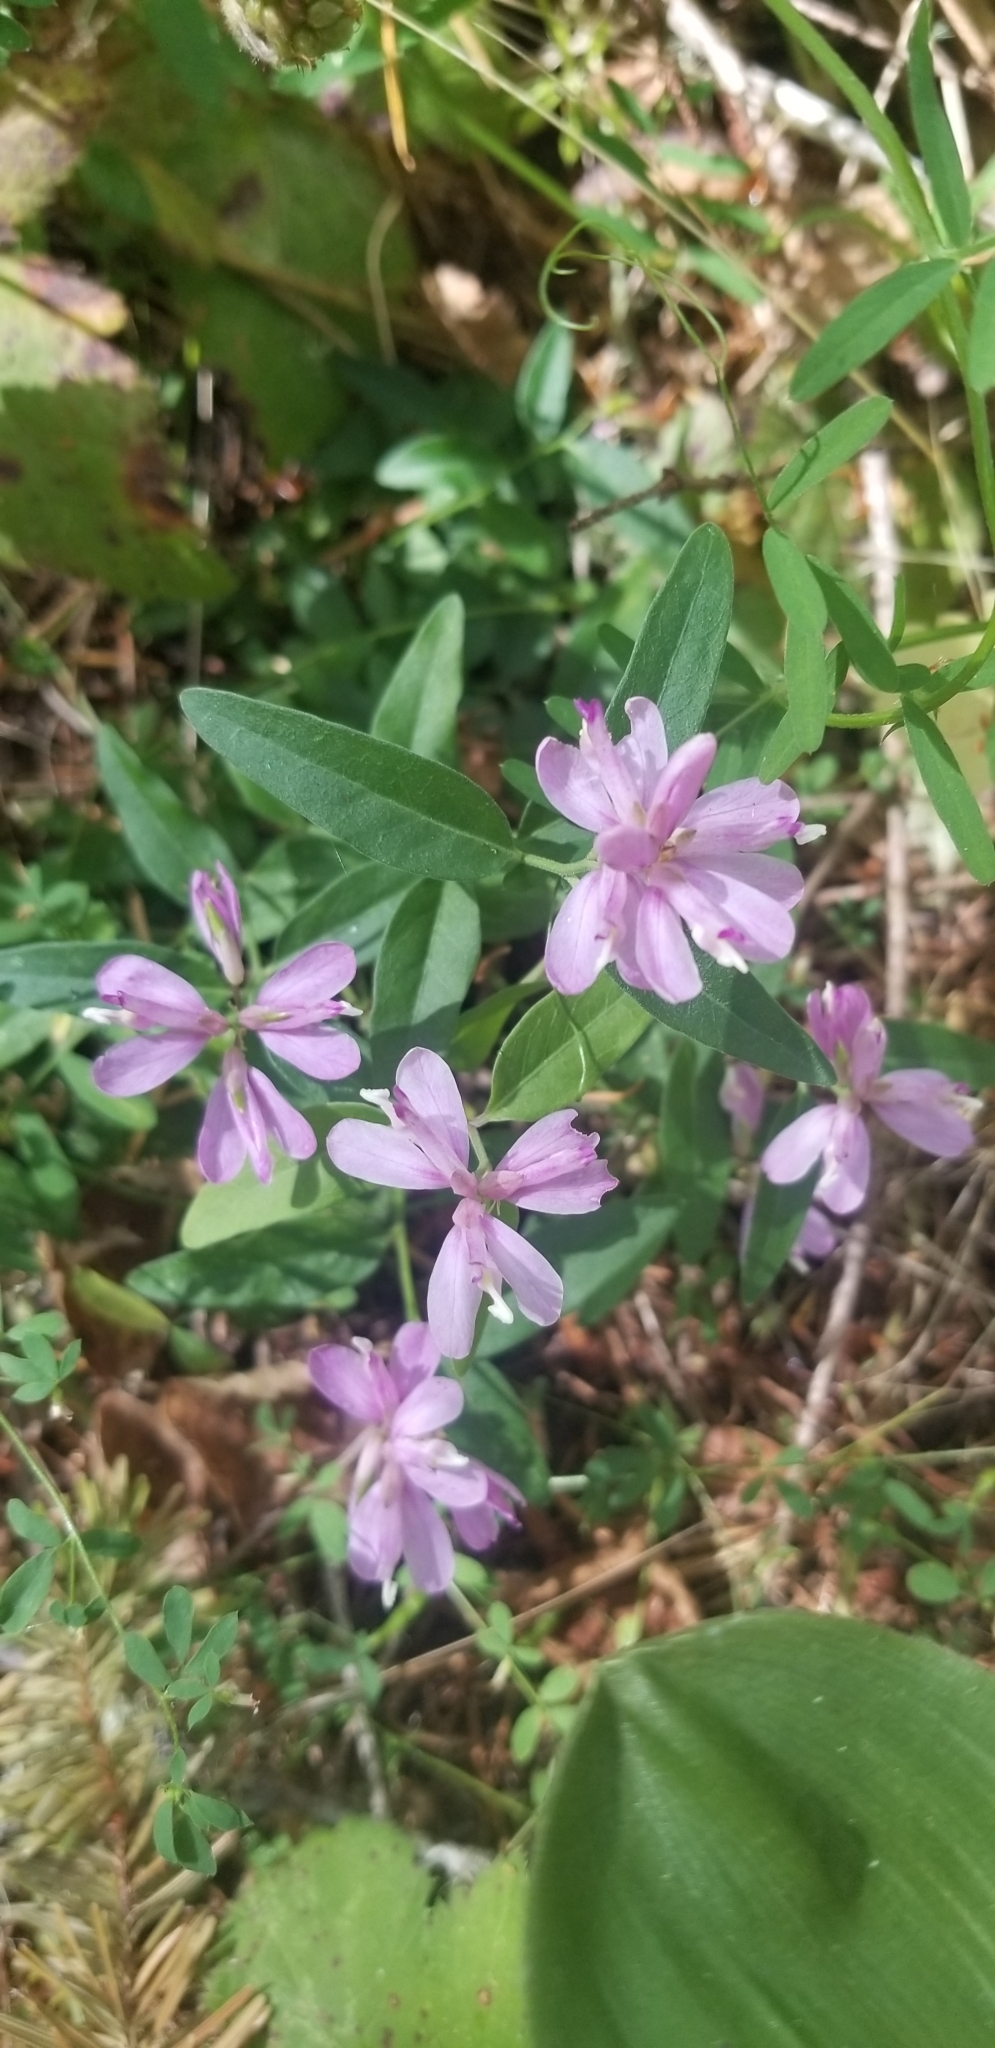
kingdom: Plantae
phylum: Tracheophyta
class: Magnoliopsida
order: Fabales
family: Polygalaceae
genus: Rhinotropis
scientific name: Rhinotropis californica
